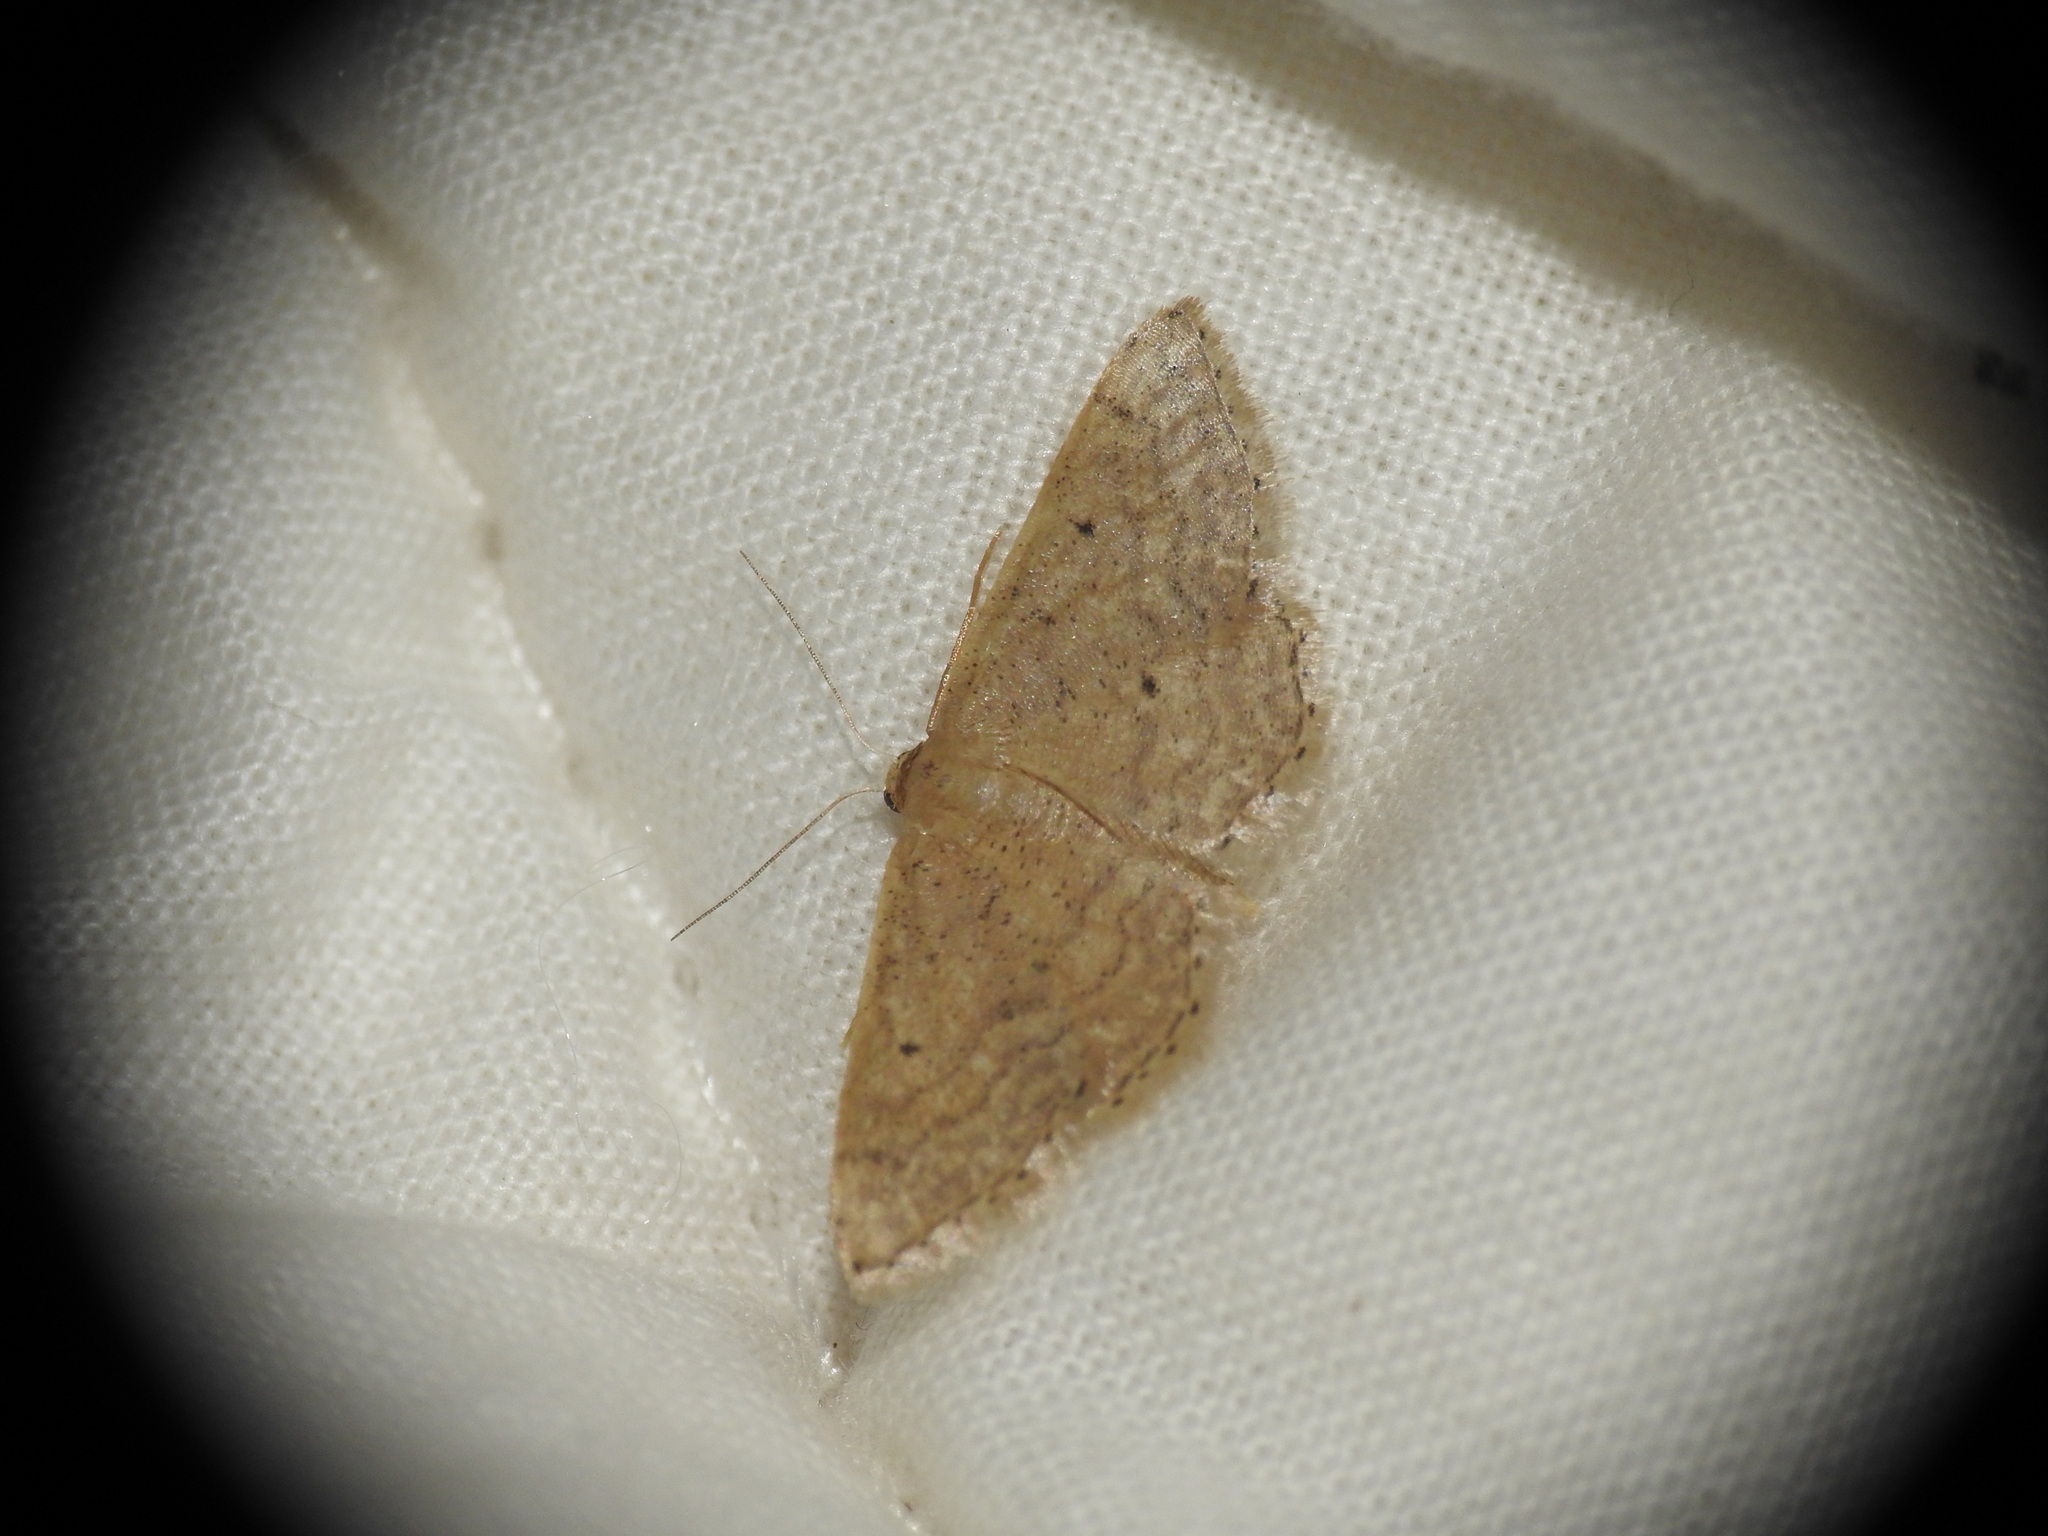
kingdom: Animalia
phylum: Arthropoda
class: Insecta
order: Lepidoptera
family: Geometridae
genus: Idaea
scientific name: Idaea obsoletaria
